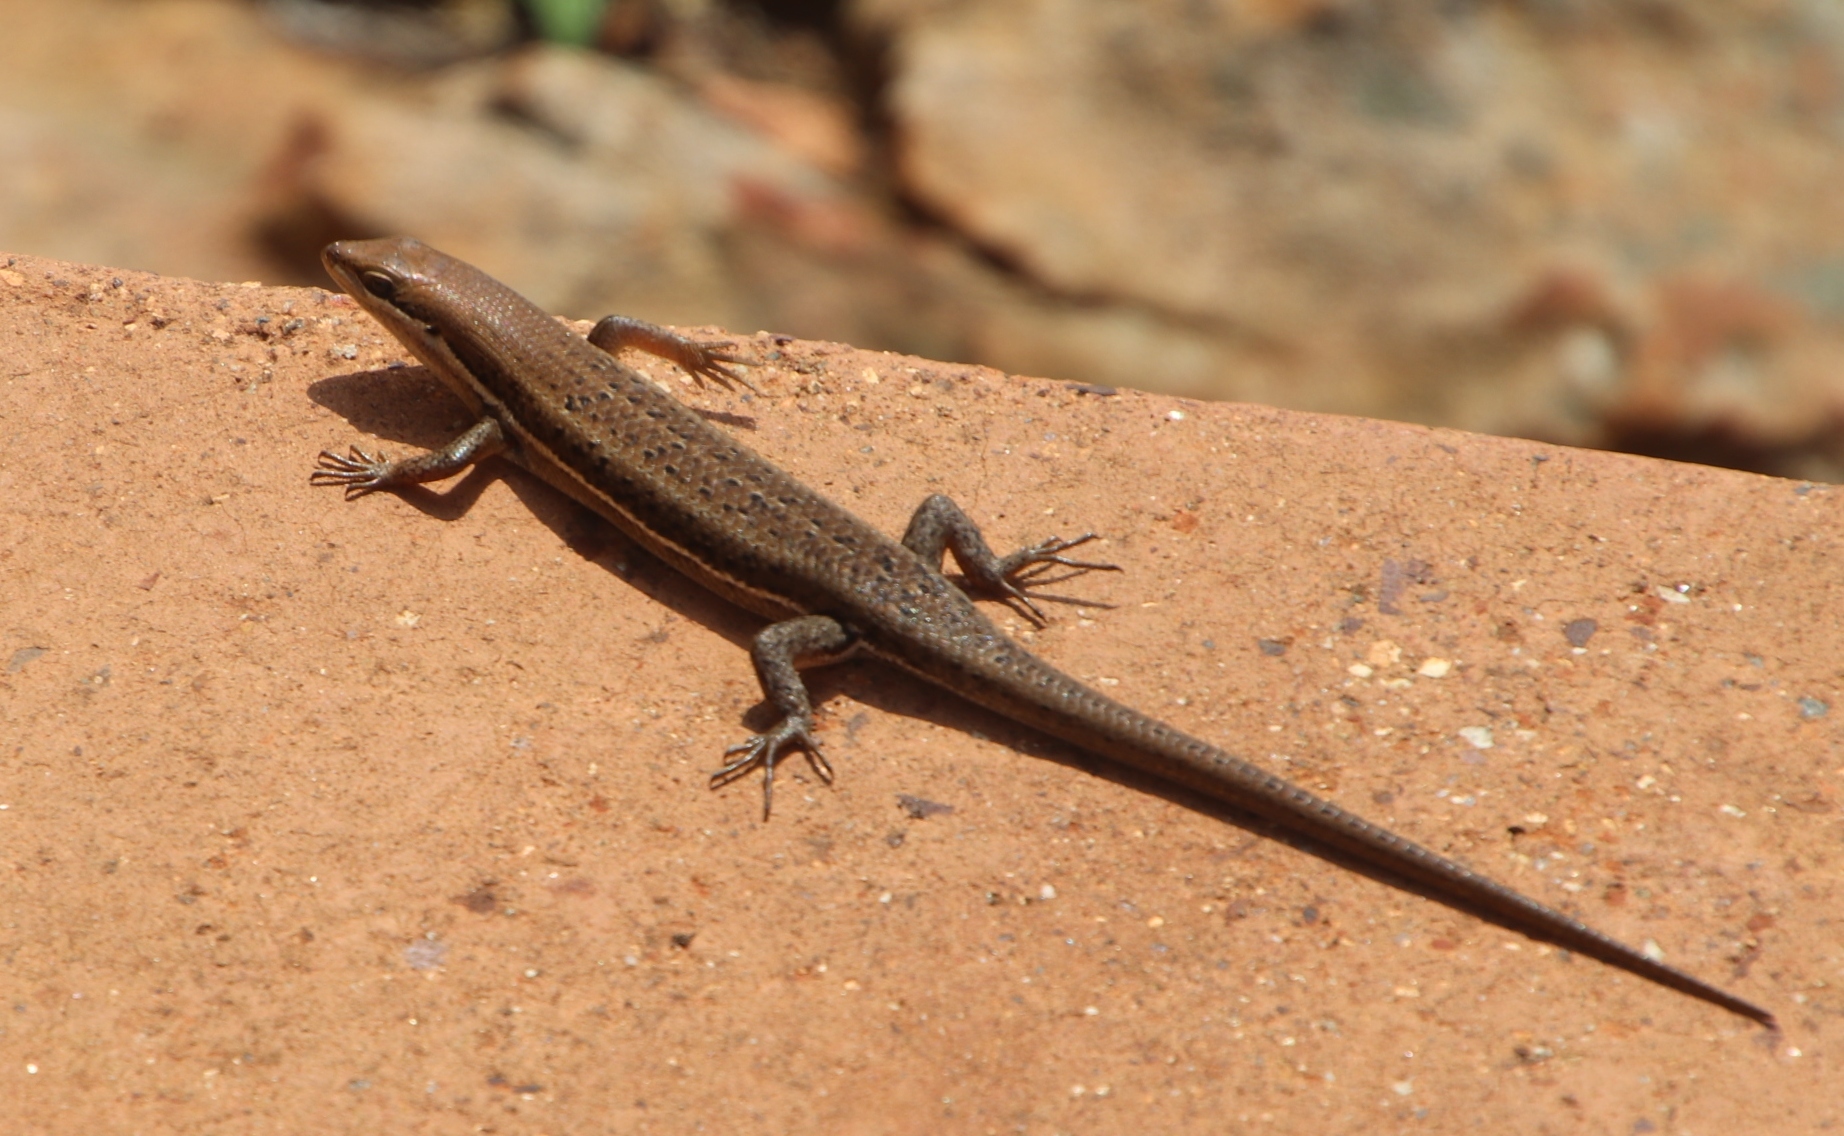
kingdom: Animalia
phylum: Chordata
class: Squamata
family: Scincidae
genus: Trachylepis
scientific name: Trachylepis varia
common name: Eastern variable skink
